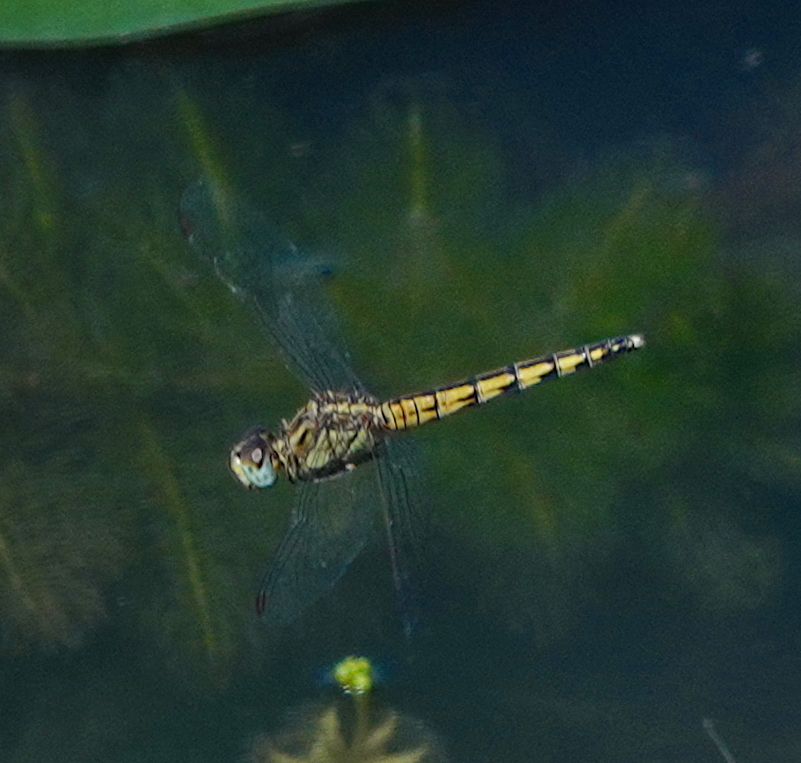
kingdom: Animalia
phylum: Arthropoda
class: Insecta
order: Odonata
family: Libellulidae
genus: Indothemis
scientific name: Indothemis carnatica
